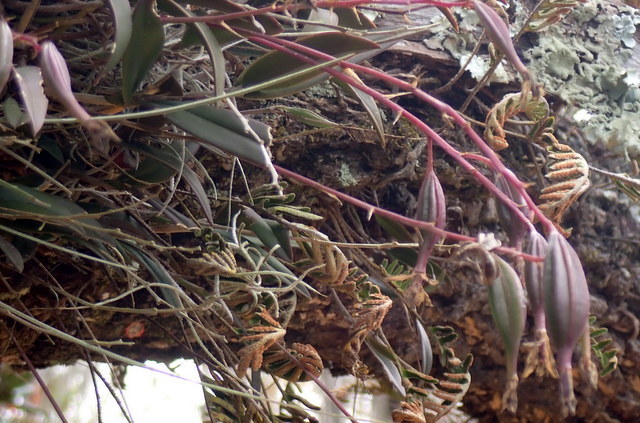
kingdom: Plantae
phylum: Tracheophyta
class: Liliopsida
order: Asparagales
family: Orchidaceae
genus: Epidendrum
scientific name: Epidendrum conopseum
